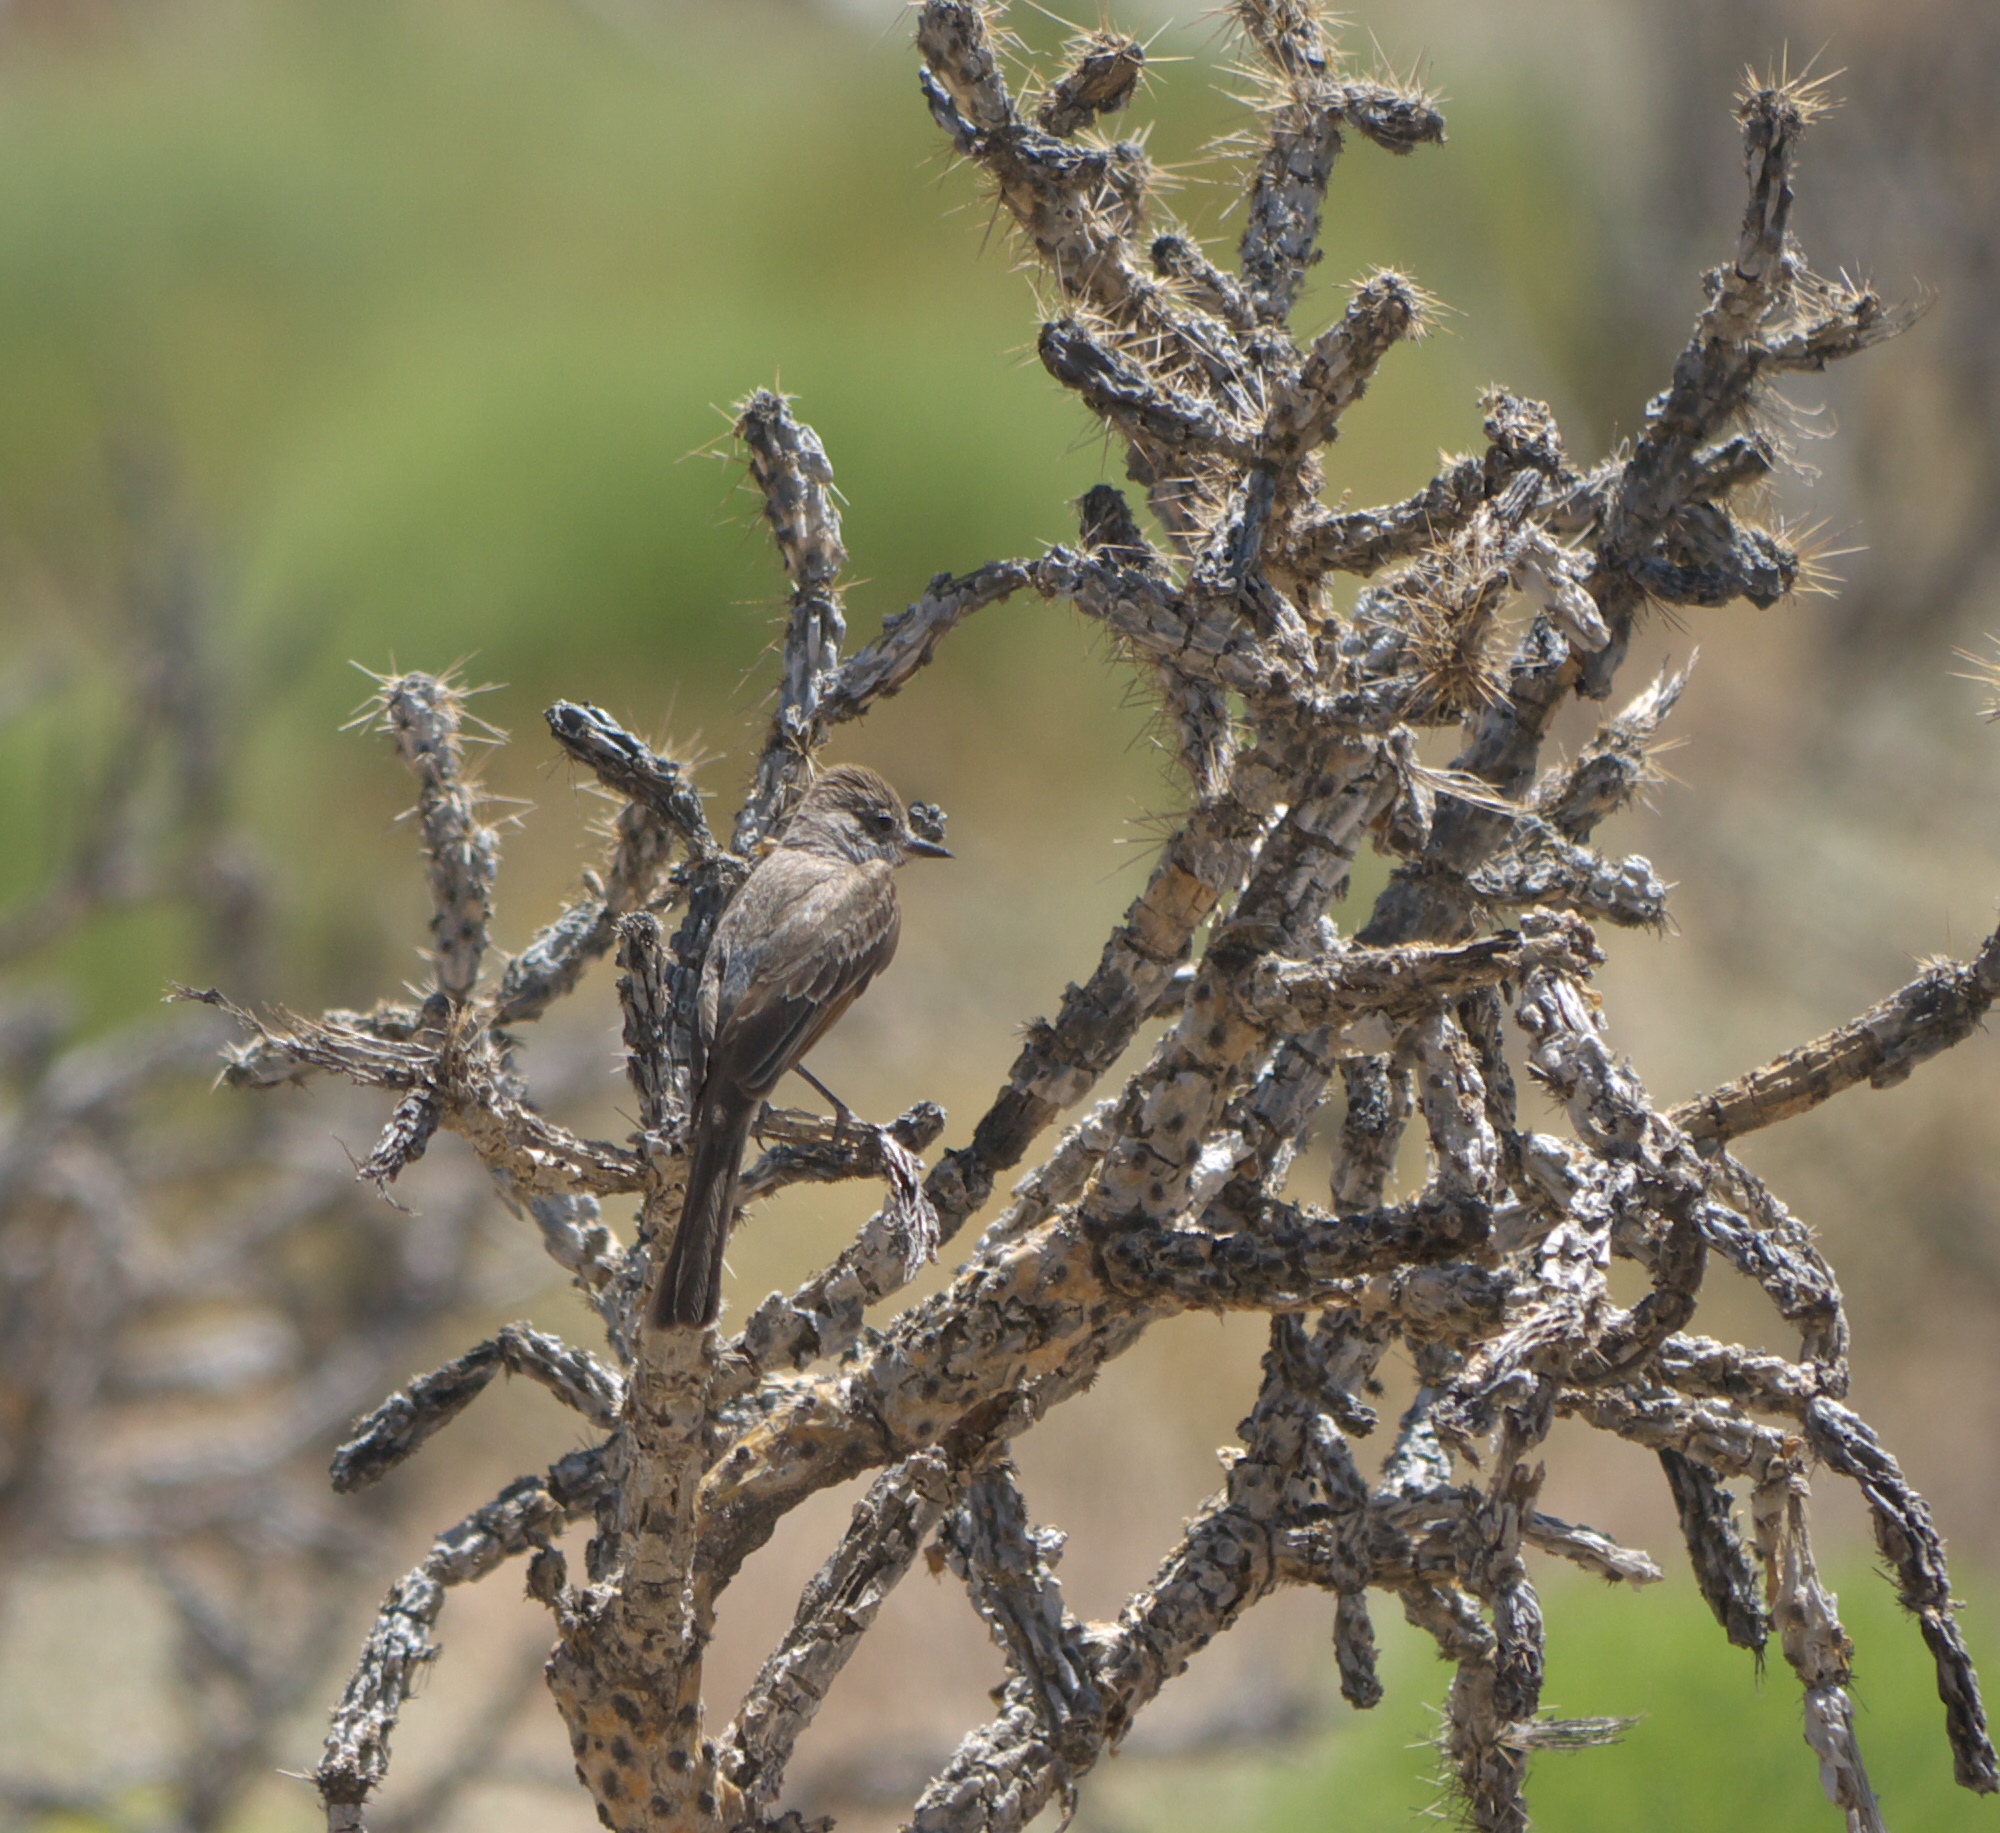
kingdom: Animalia
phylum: Chordata
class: Aves
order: Passeriformes
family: Tyrannidae
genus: Myiarchus
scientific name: Myiarchus cinerascens
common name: Ash-throated flycatcher
